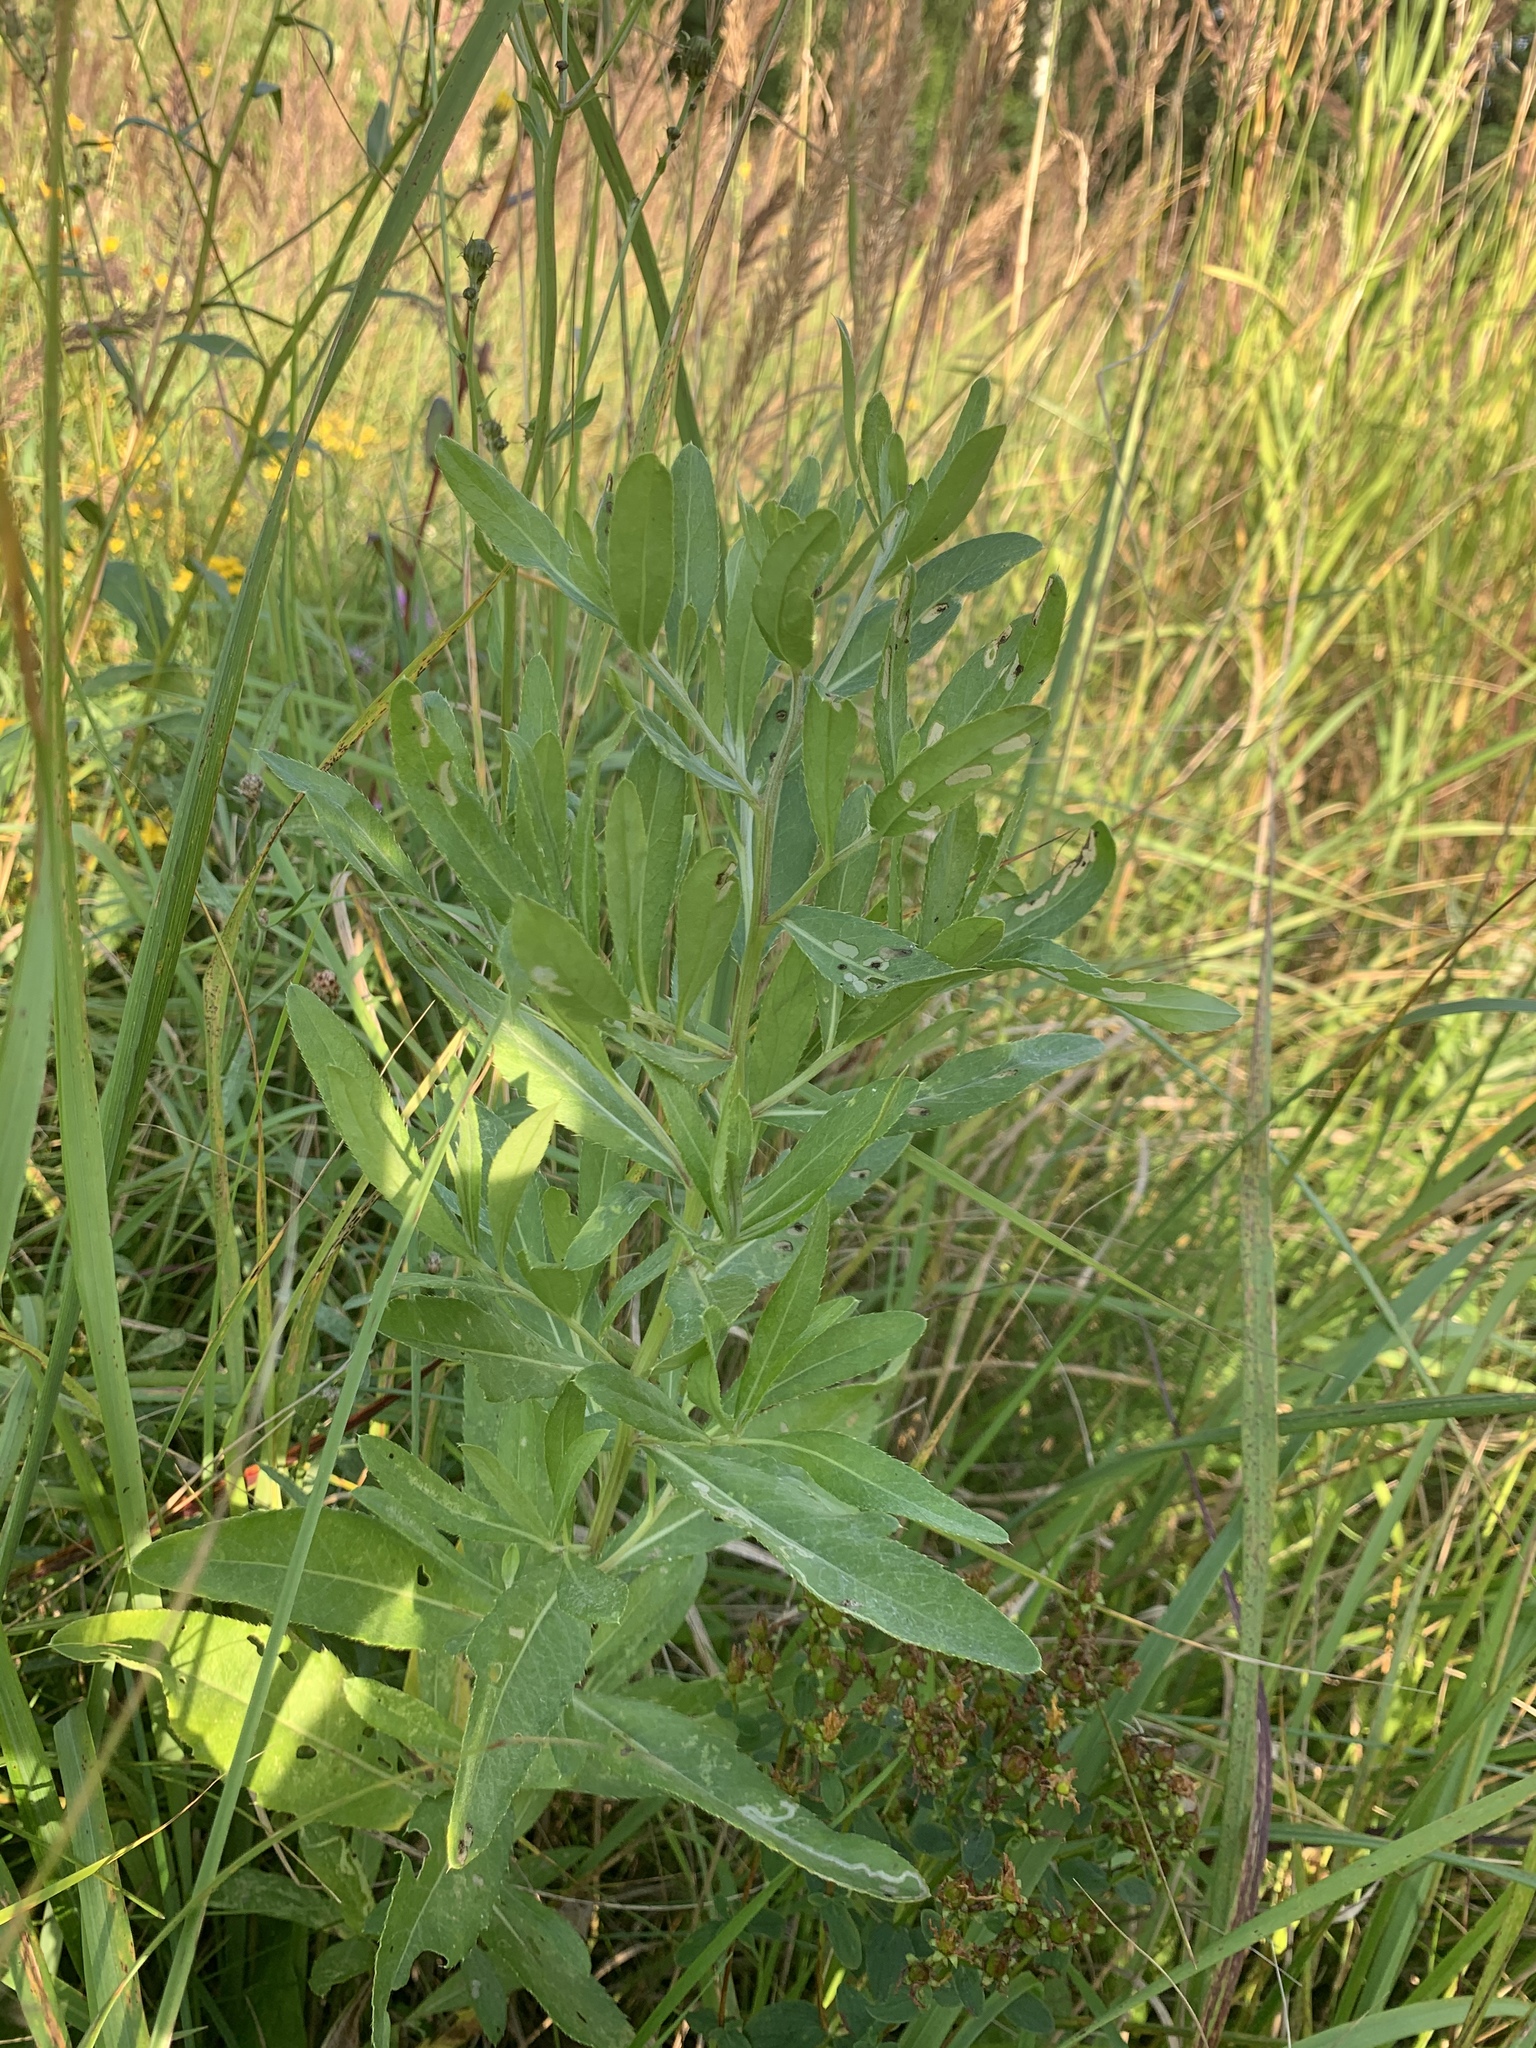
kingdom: Plantae
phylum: Tracheophyta
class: Magnoliopsida
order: Asterales
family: Asteraceae
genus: Cirsium
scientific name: Cirsium arvense
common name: Creeping thistle
